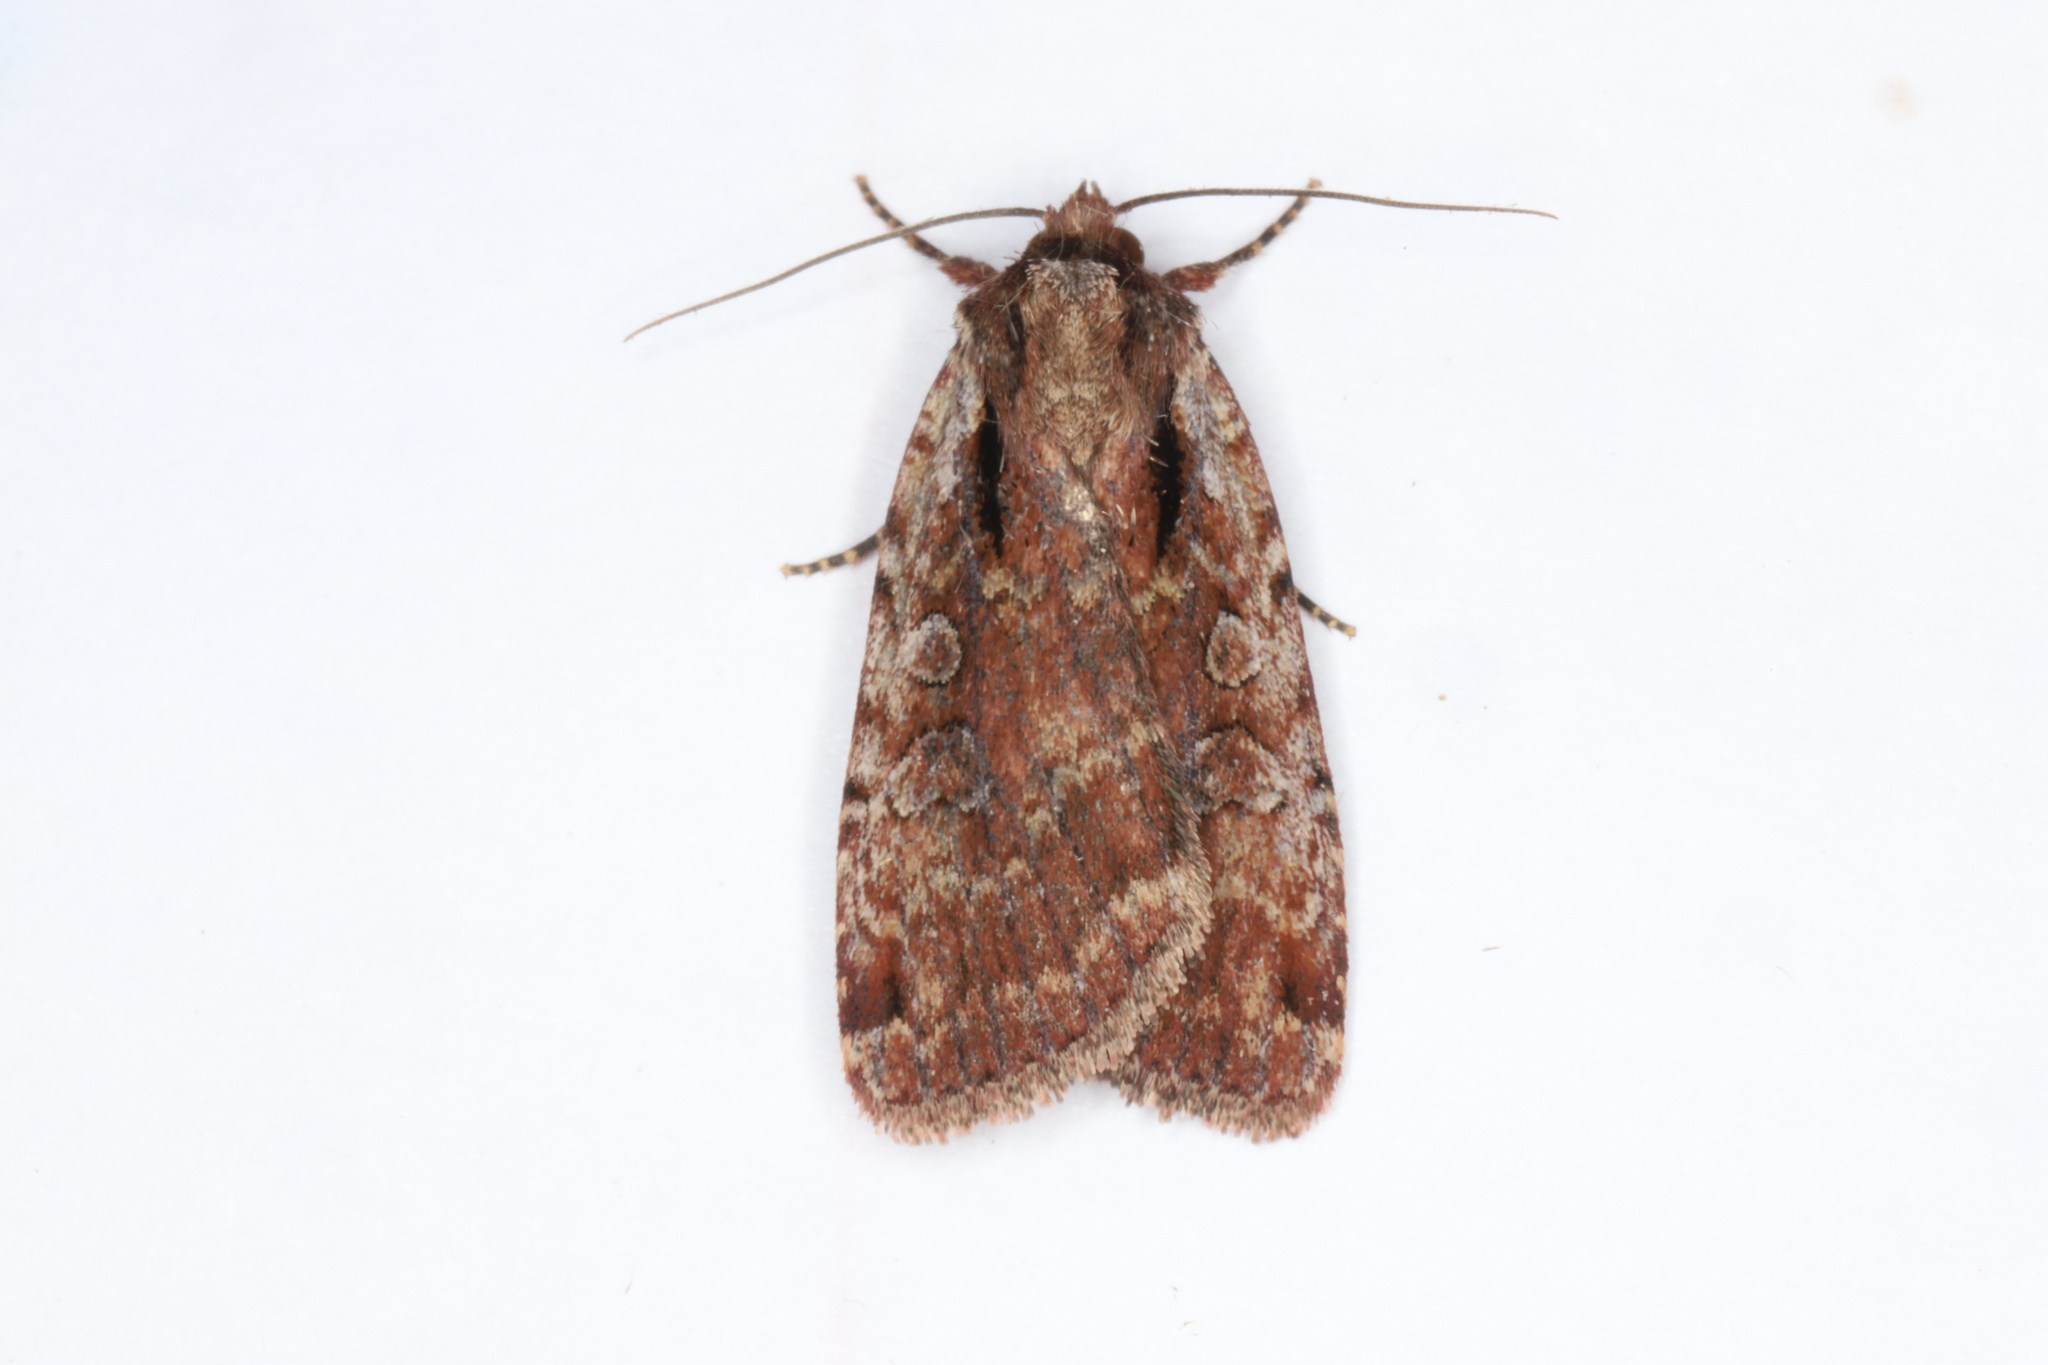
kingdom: Animalia
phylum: Arthropoda
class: Insecta
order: Lepidoptera
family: Noctuidae
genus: Eueretagrotis
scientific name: Eueretagrotis attentus
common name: Attentive dart
